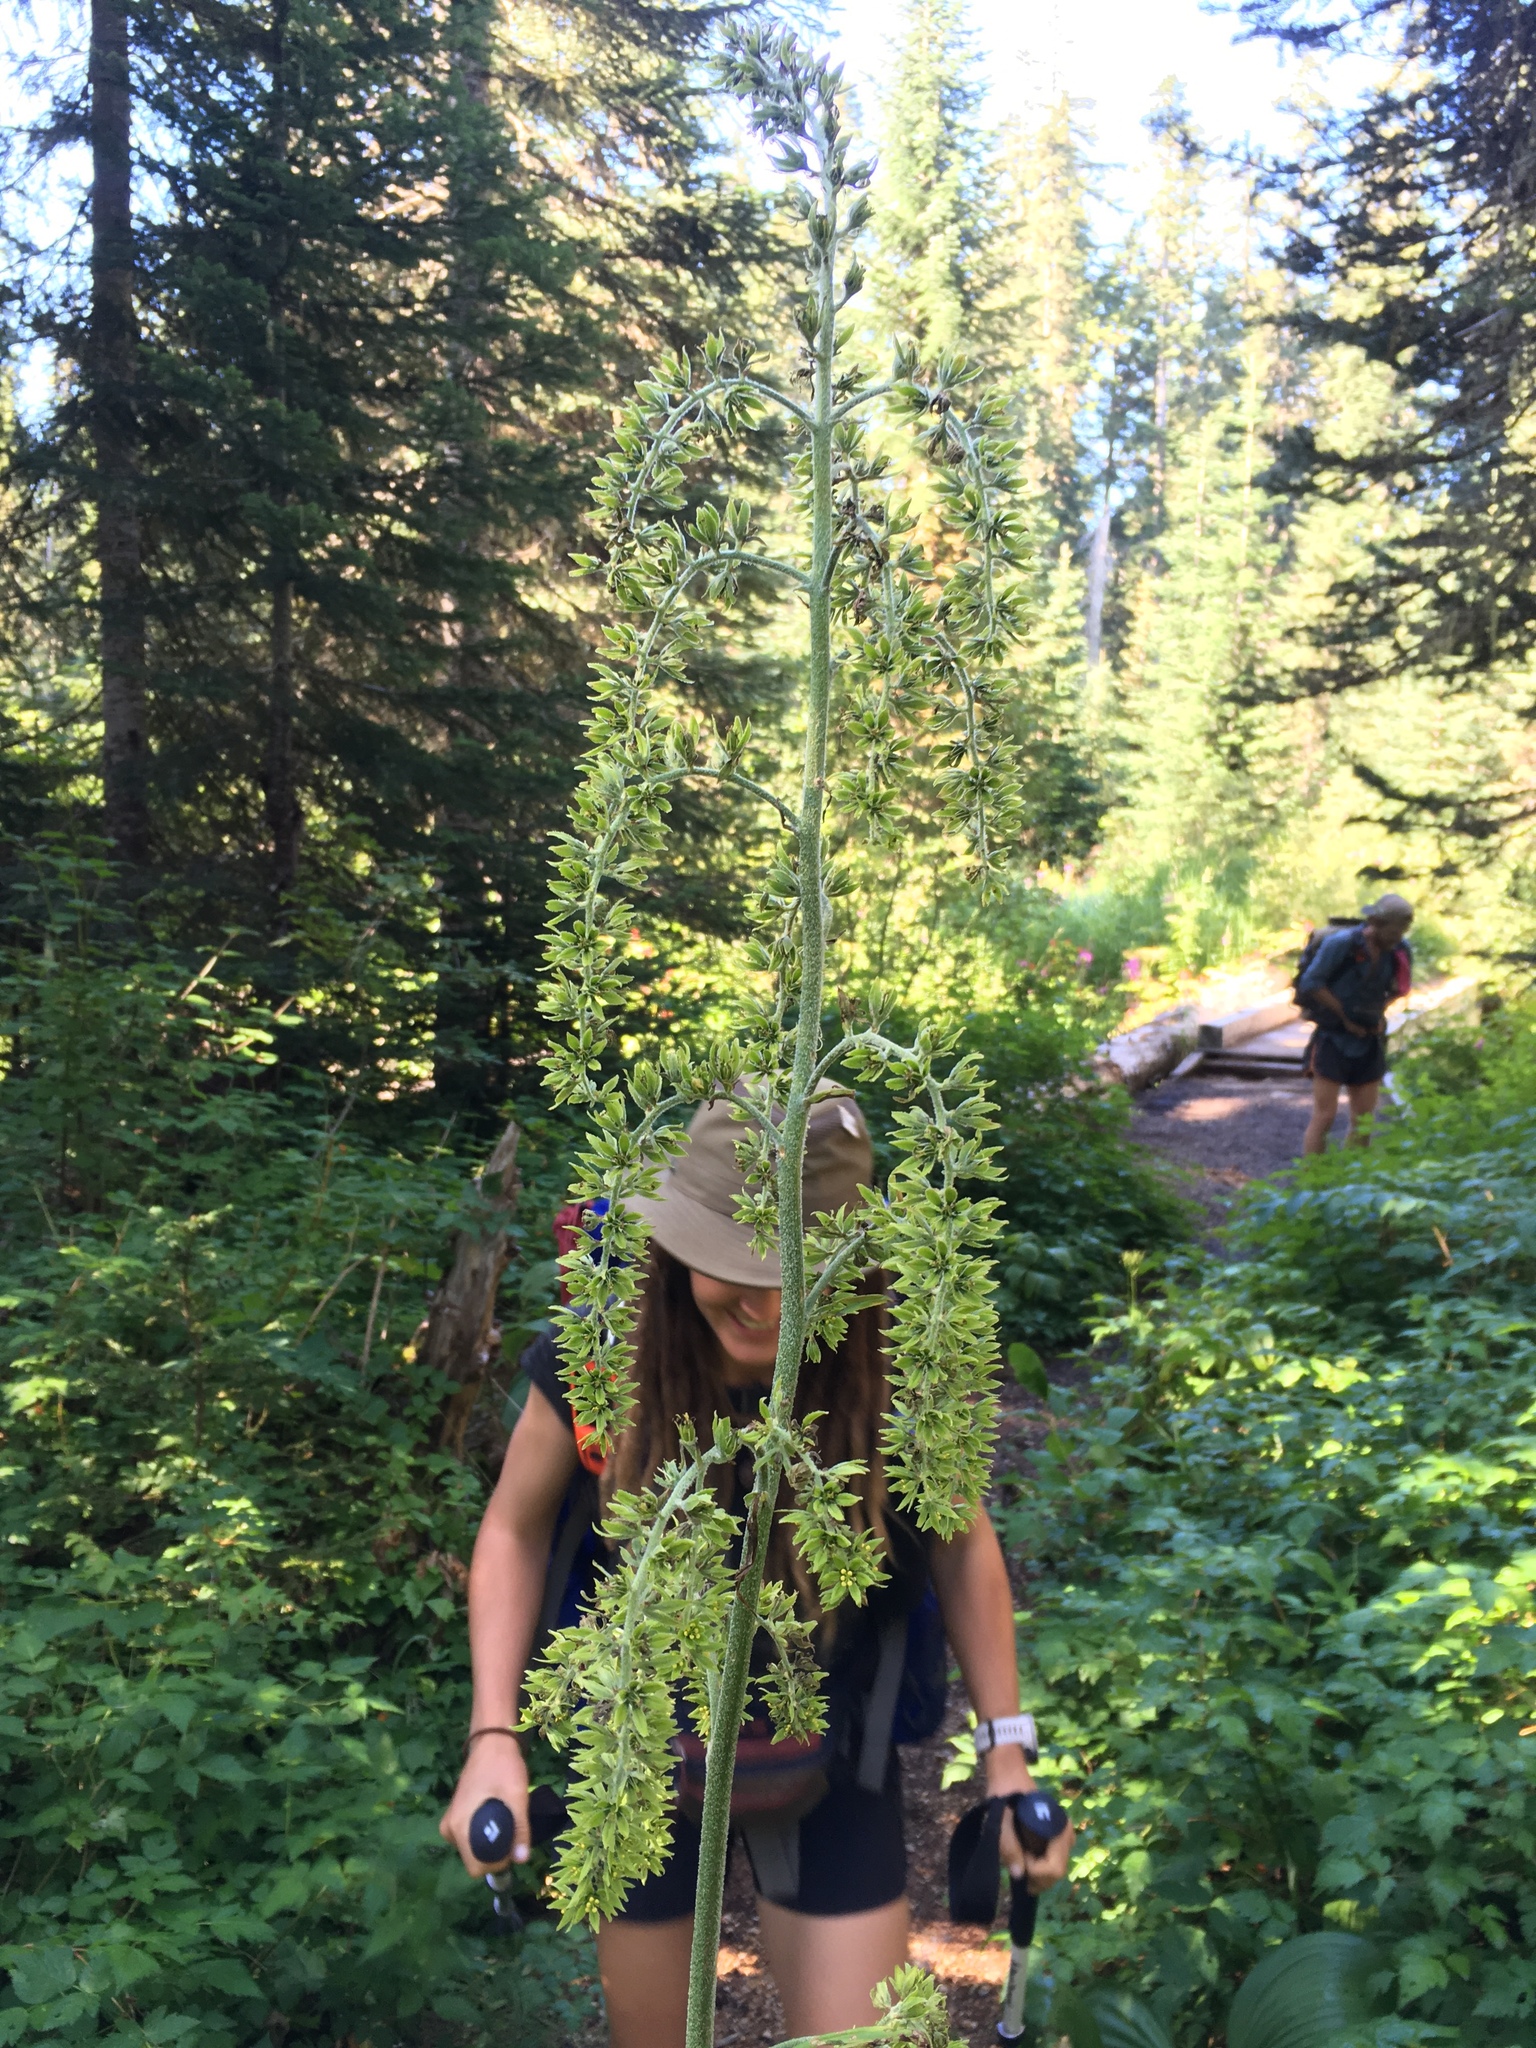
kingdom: Plantae
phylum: Tracheophyta
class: Liliopsida
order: Liliales
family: Melanthiaceae
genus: Veratrum
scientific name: Veratrum viride
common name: American false hellebore
